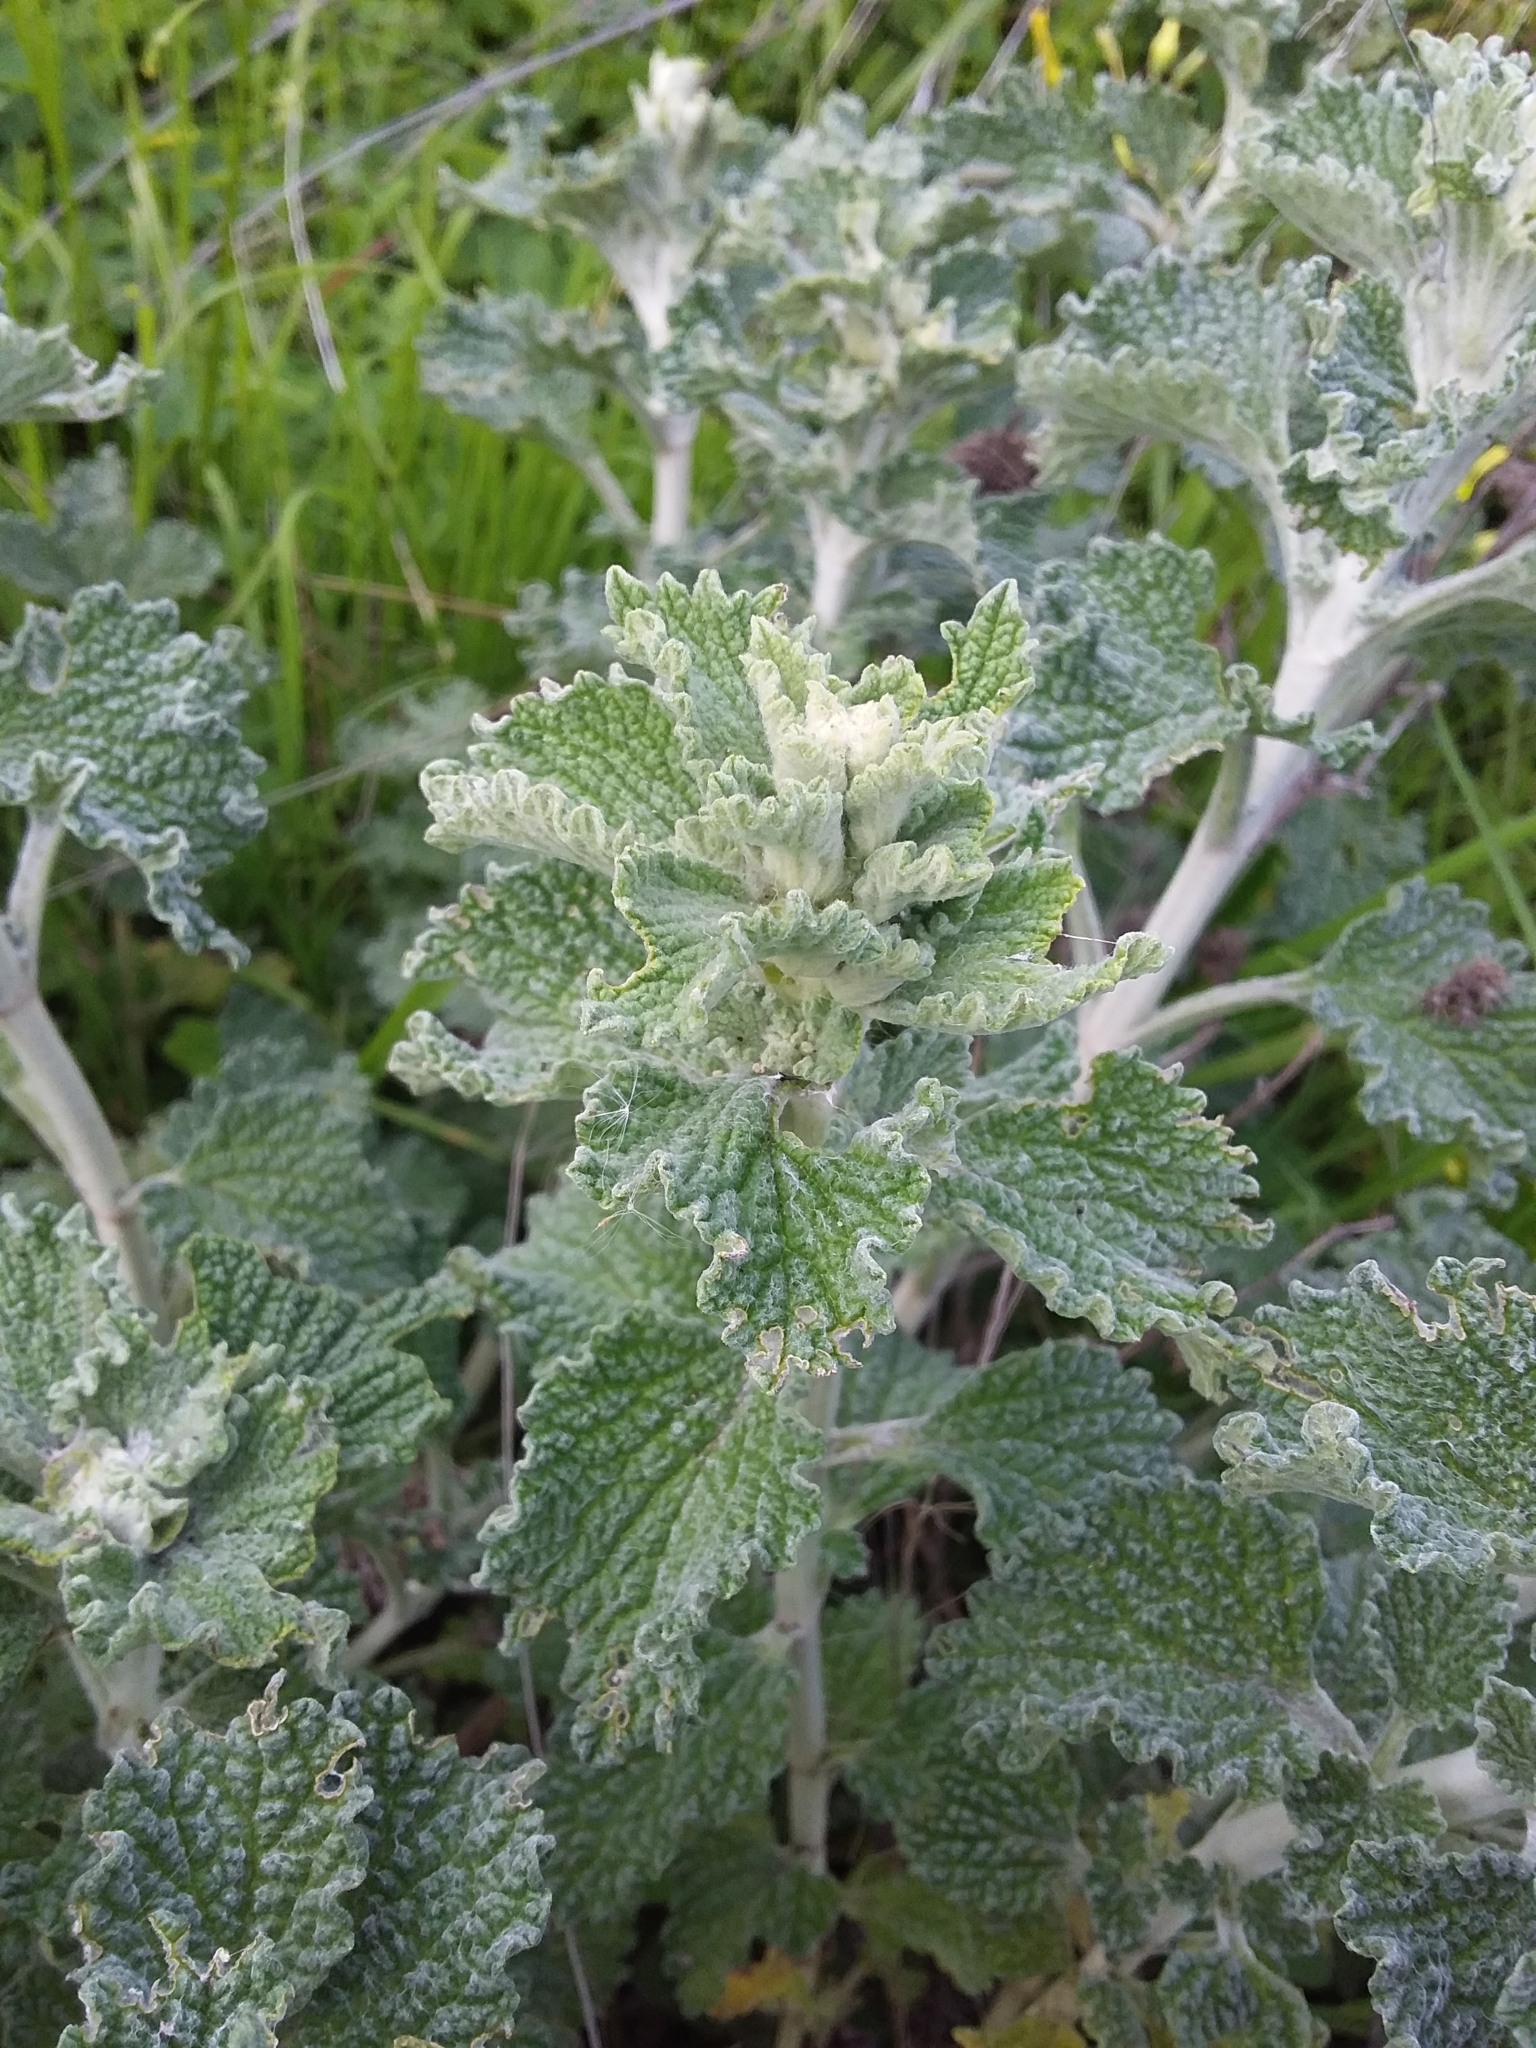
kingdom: Plantae
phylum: Tracheophyta
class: Magnoliopsida
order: Lamiales
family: Lamiaceae
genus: Marrubium
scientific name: Marrubium vulgare
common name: Horehound
